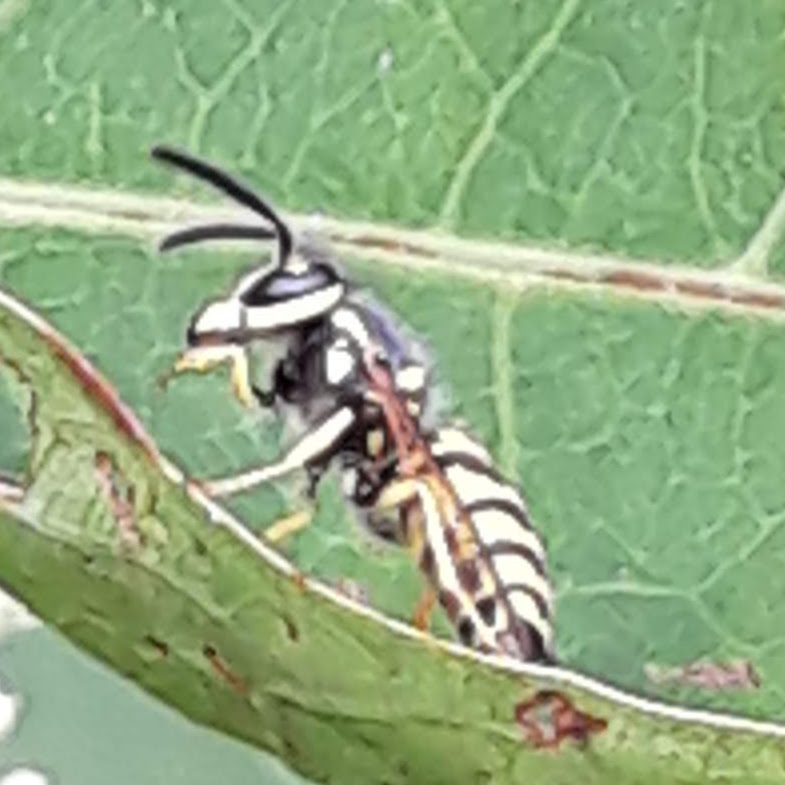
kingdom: Animalia
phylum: Arthropoda
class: Insecta
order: Hymenoptera
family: Vespidae
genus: Vespula
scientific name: Vespula
